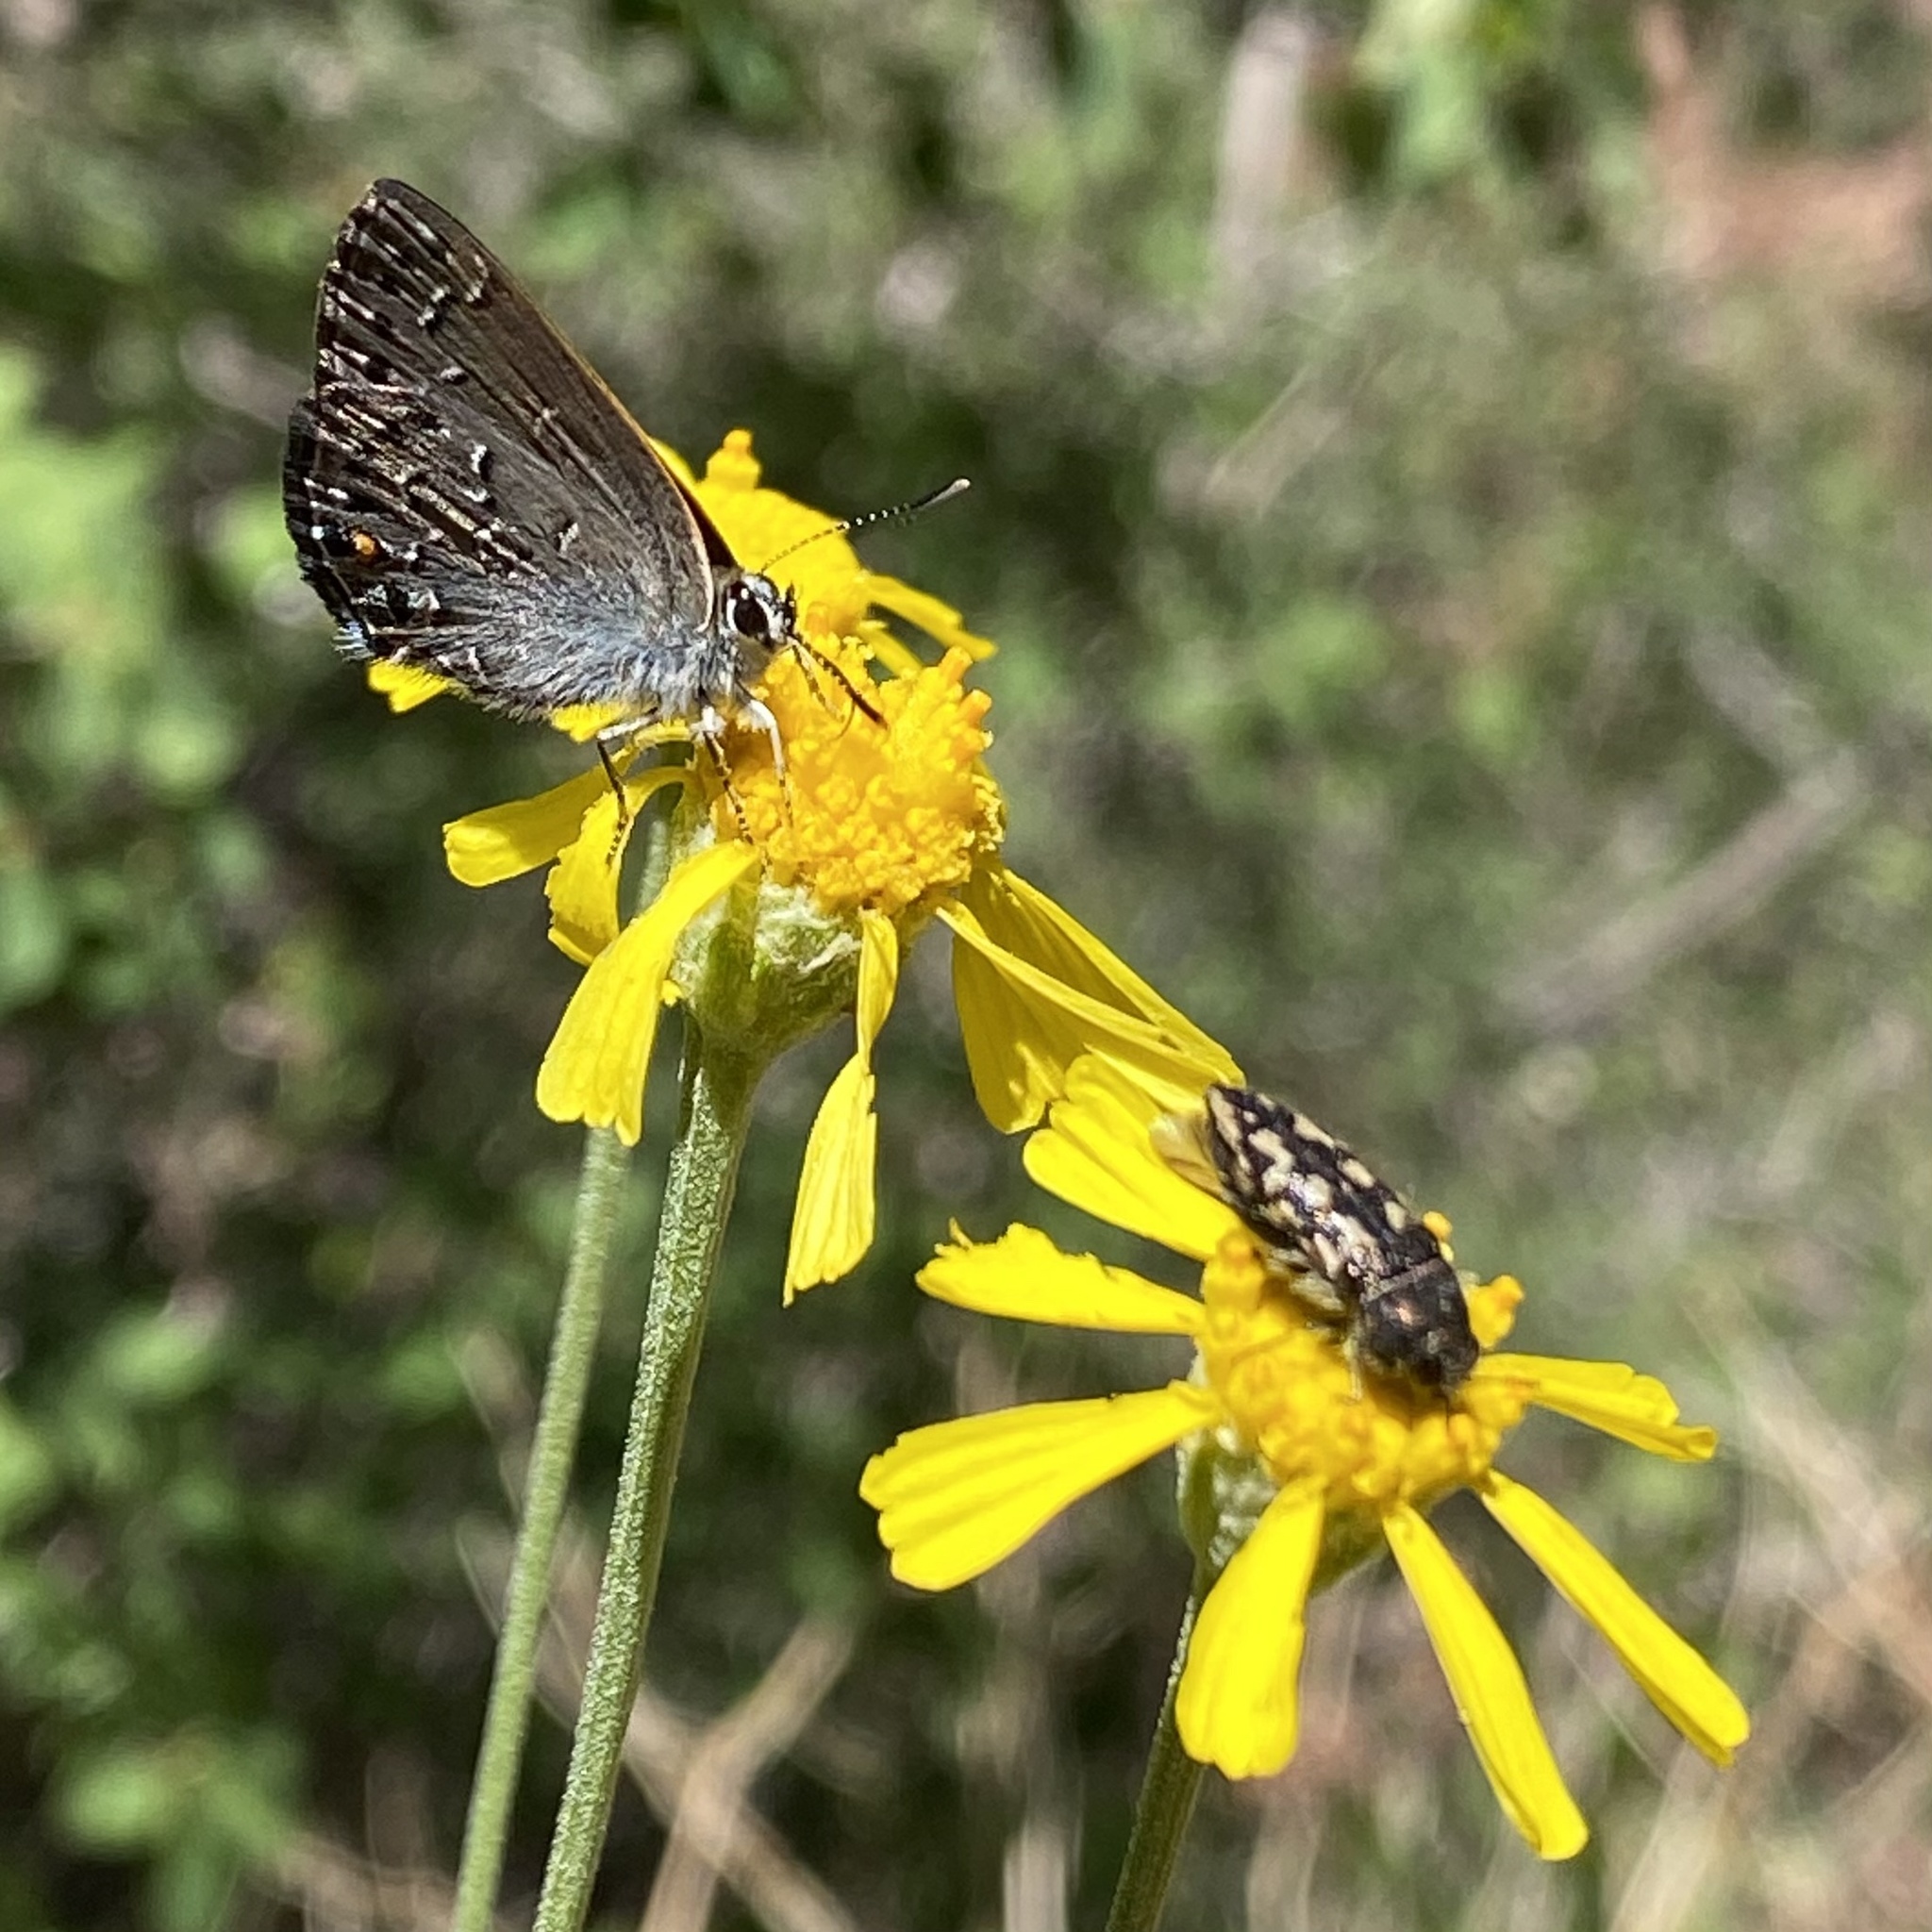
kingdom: Animalia
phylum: Arthropoda
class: Insecta
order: Coleoptera
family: Buprestidae
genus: Acmaeodera
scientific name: Acmaeodera bowditchi
